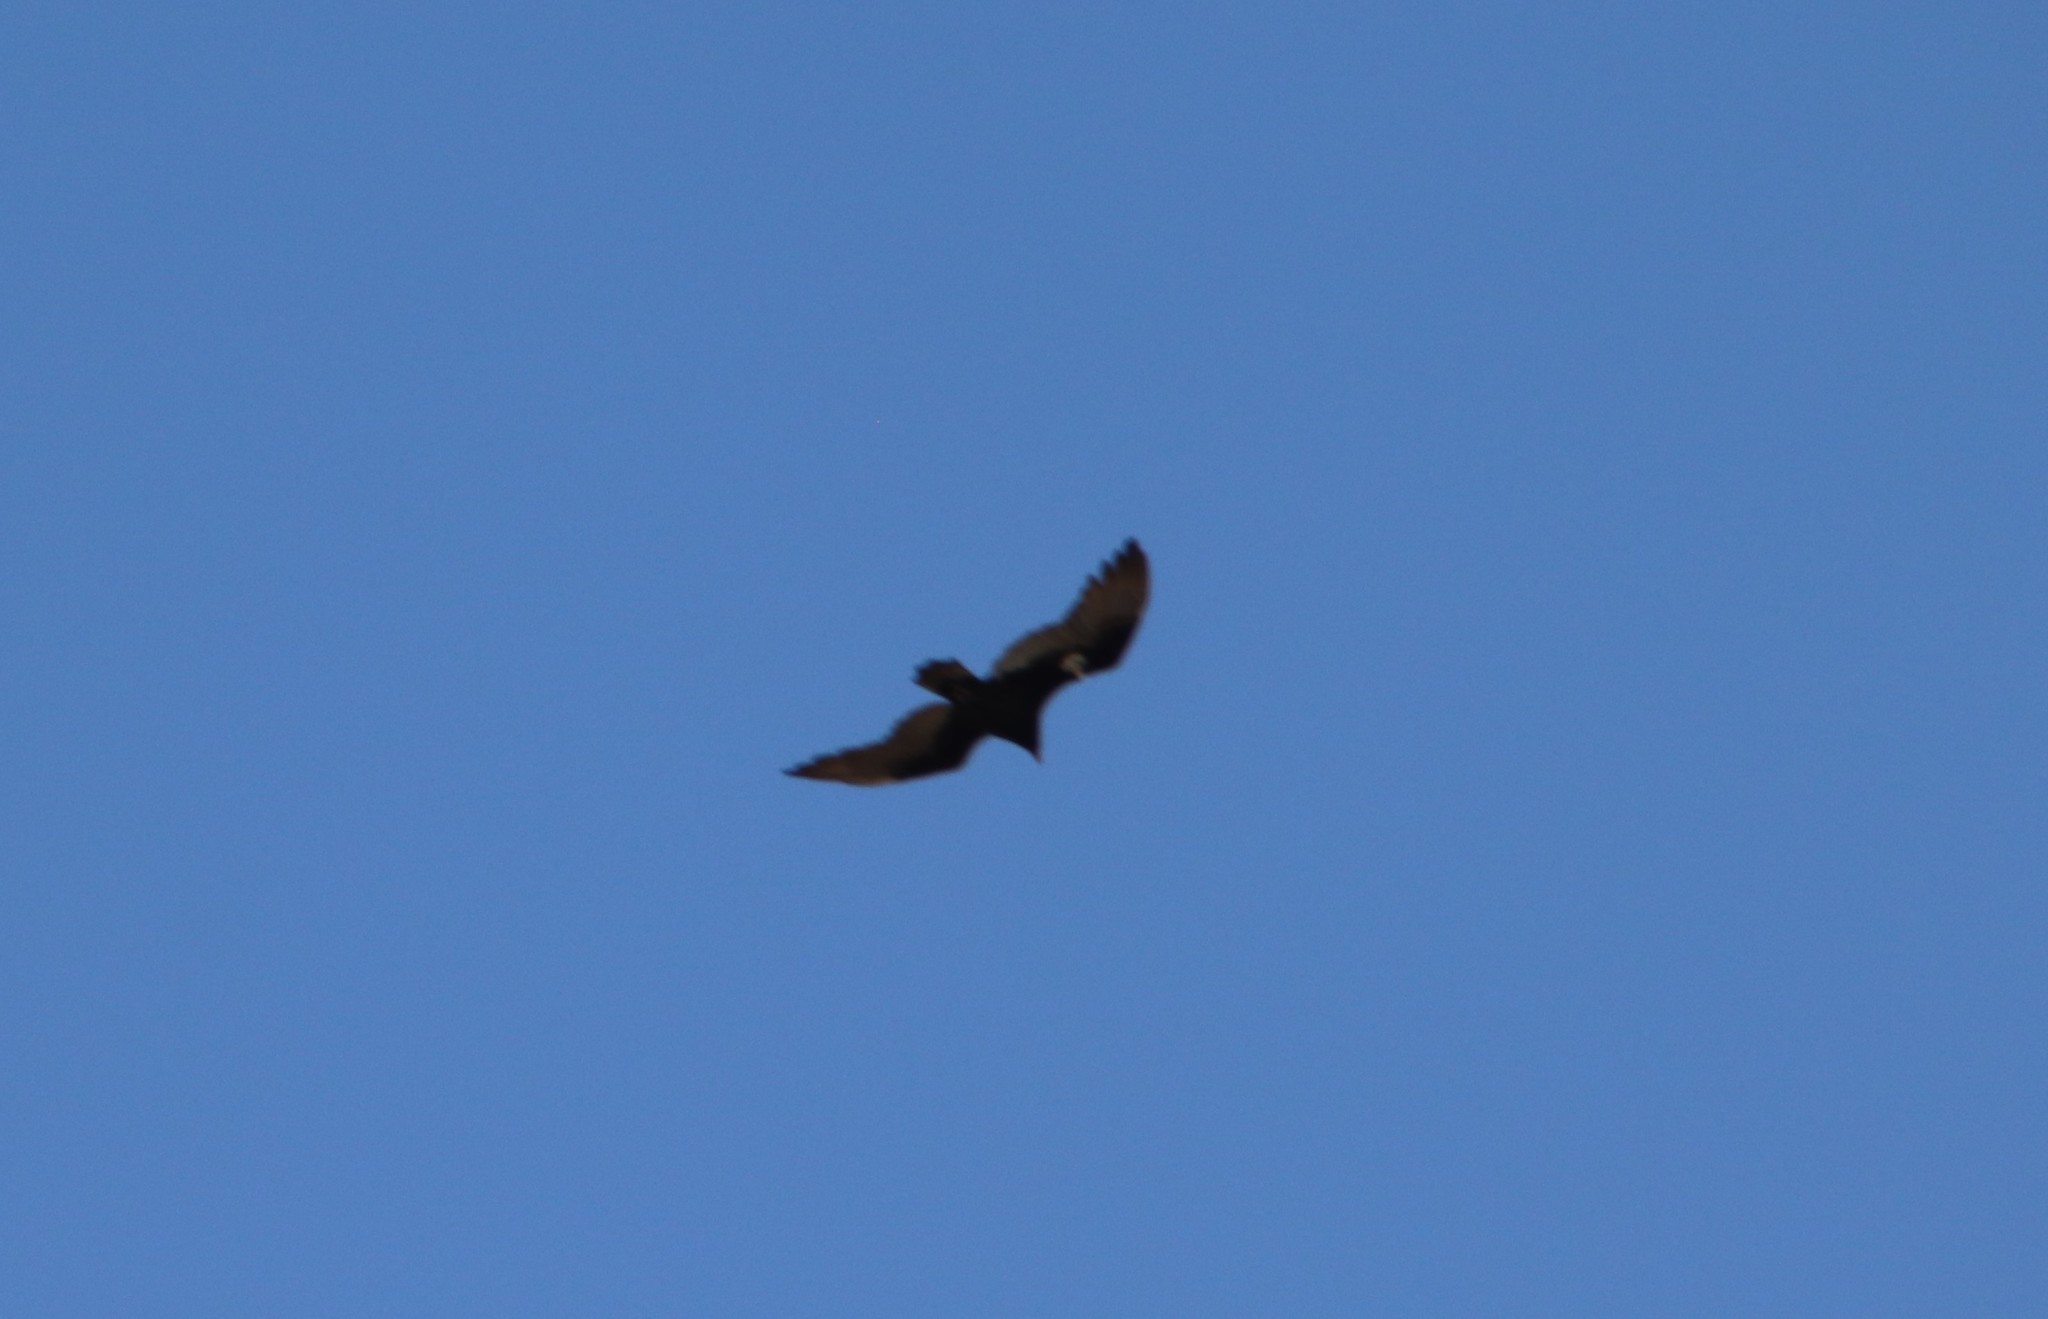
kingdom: Animalia
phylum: Chordata
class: Aves
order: Accipitriformes
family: Cathartidae
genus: Cathartes
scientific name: Cathartes aura
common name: Turkey vulture
